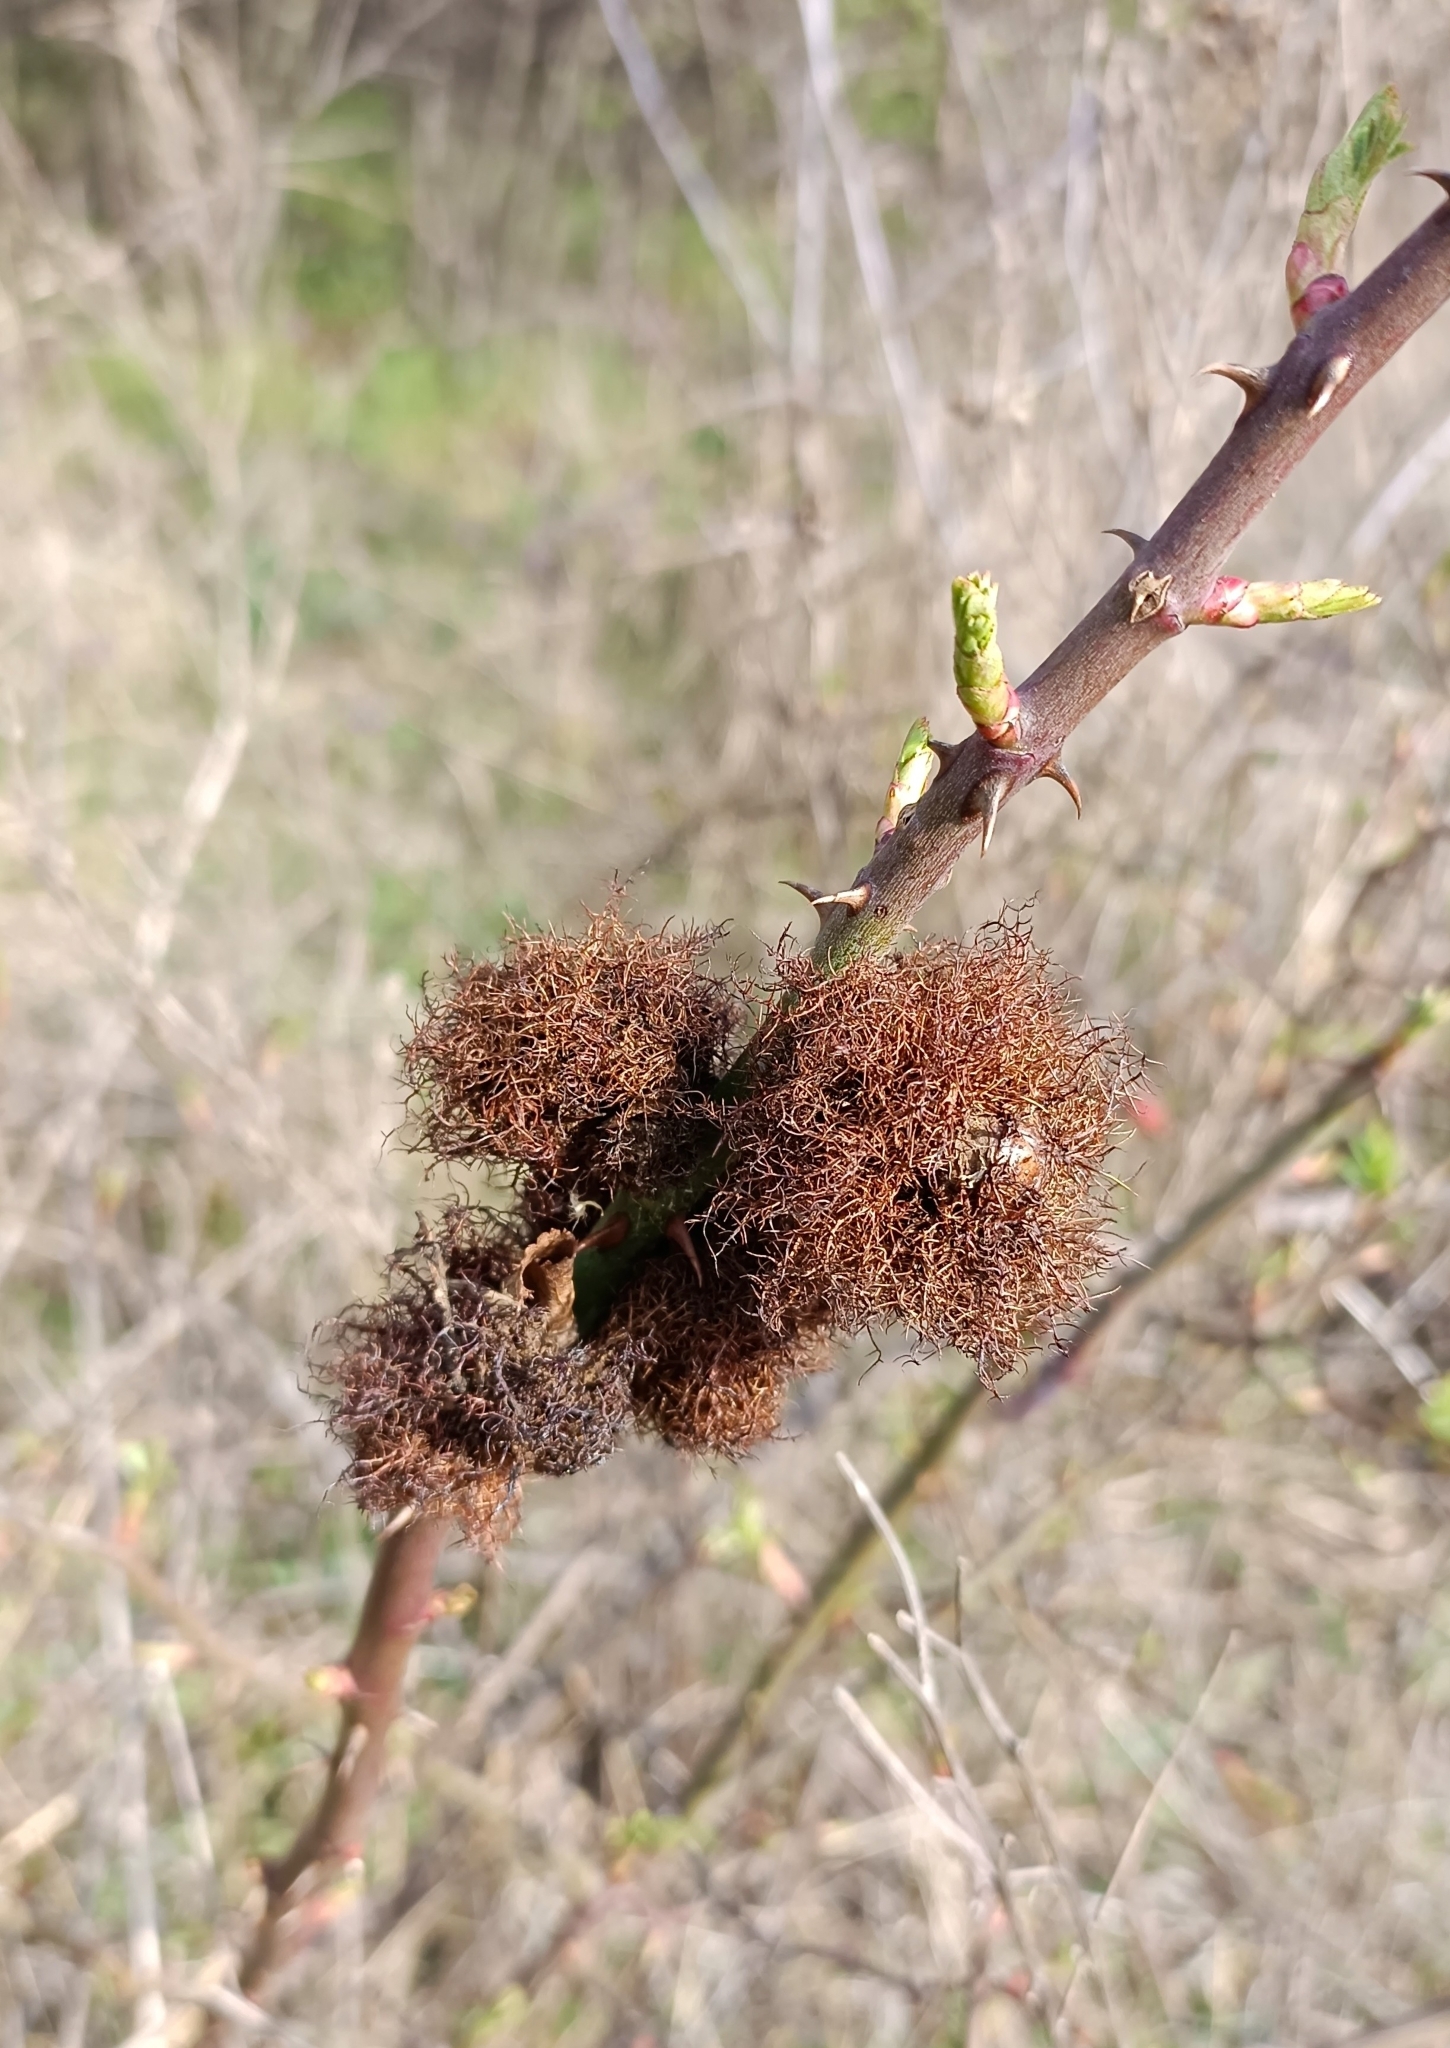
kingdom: Animalia
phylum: Arthropoda
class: Insecta
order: Hymenoptera
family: Cynipidae
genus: Diplolepis
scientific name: Diplolepis rosae
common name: Bedeguar gall
